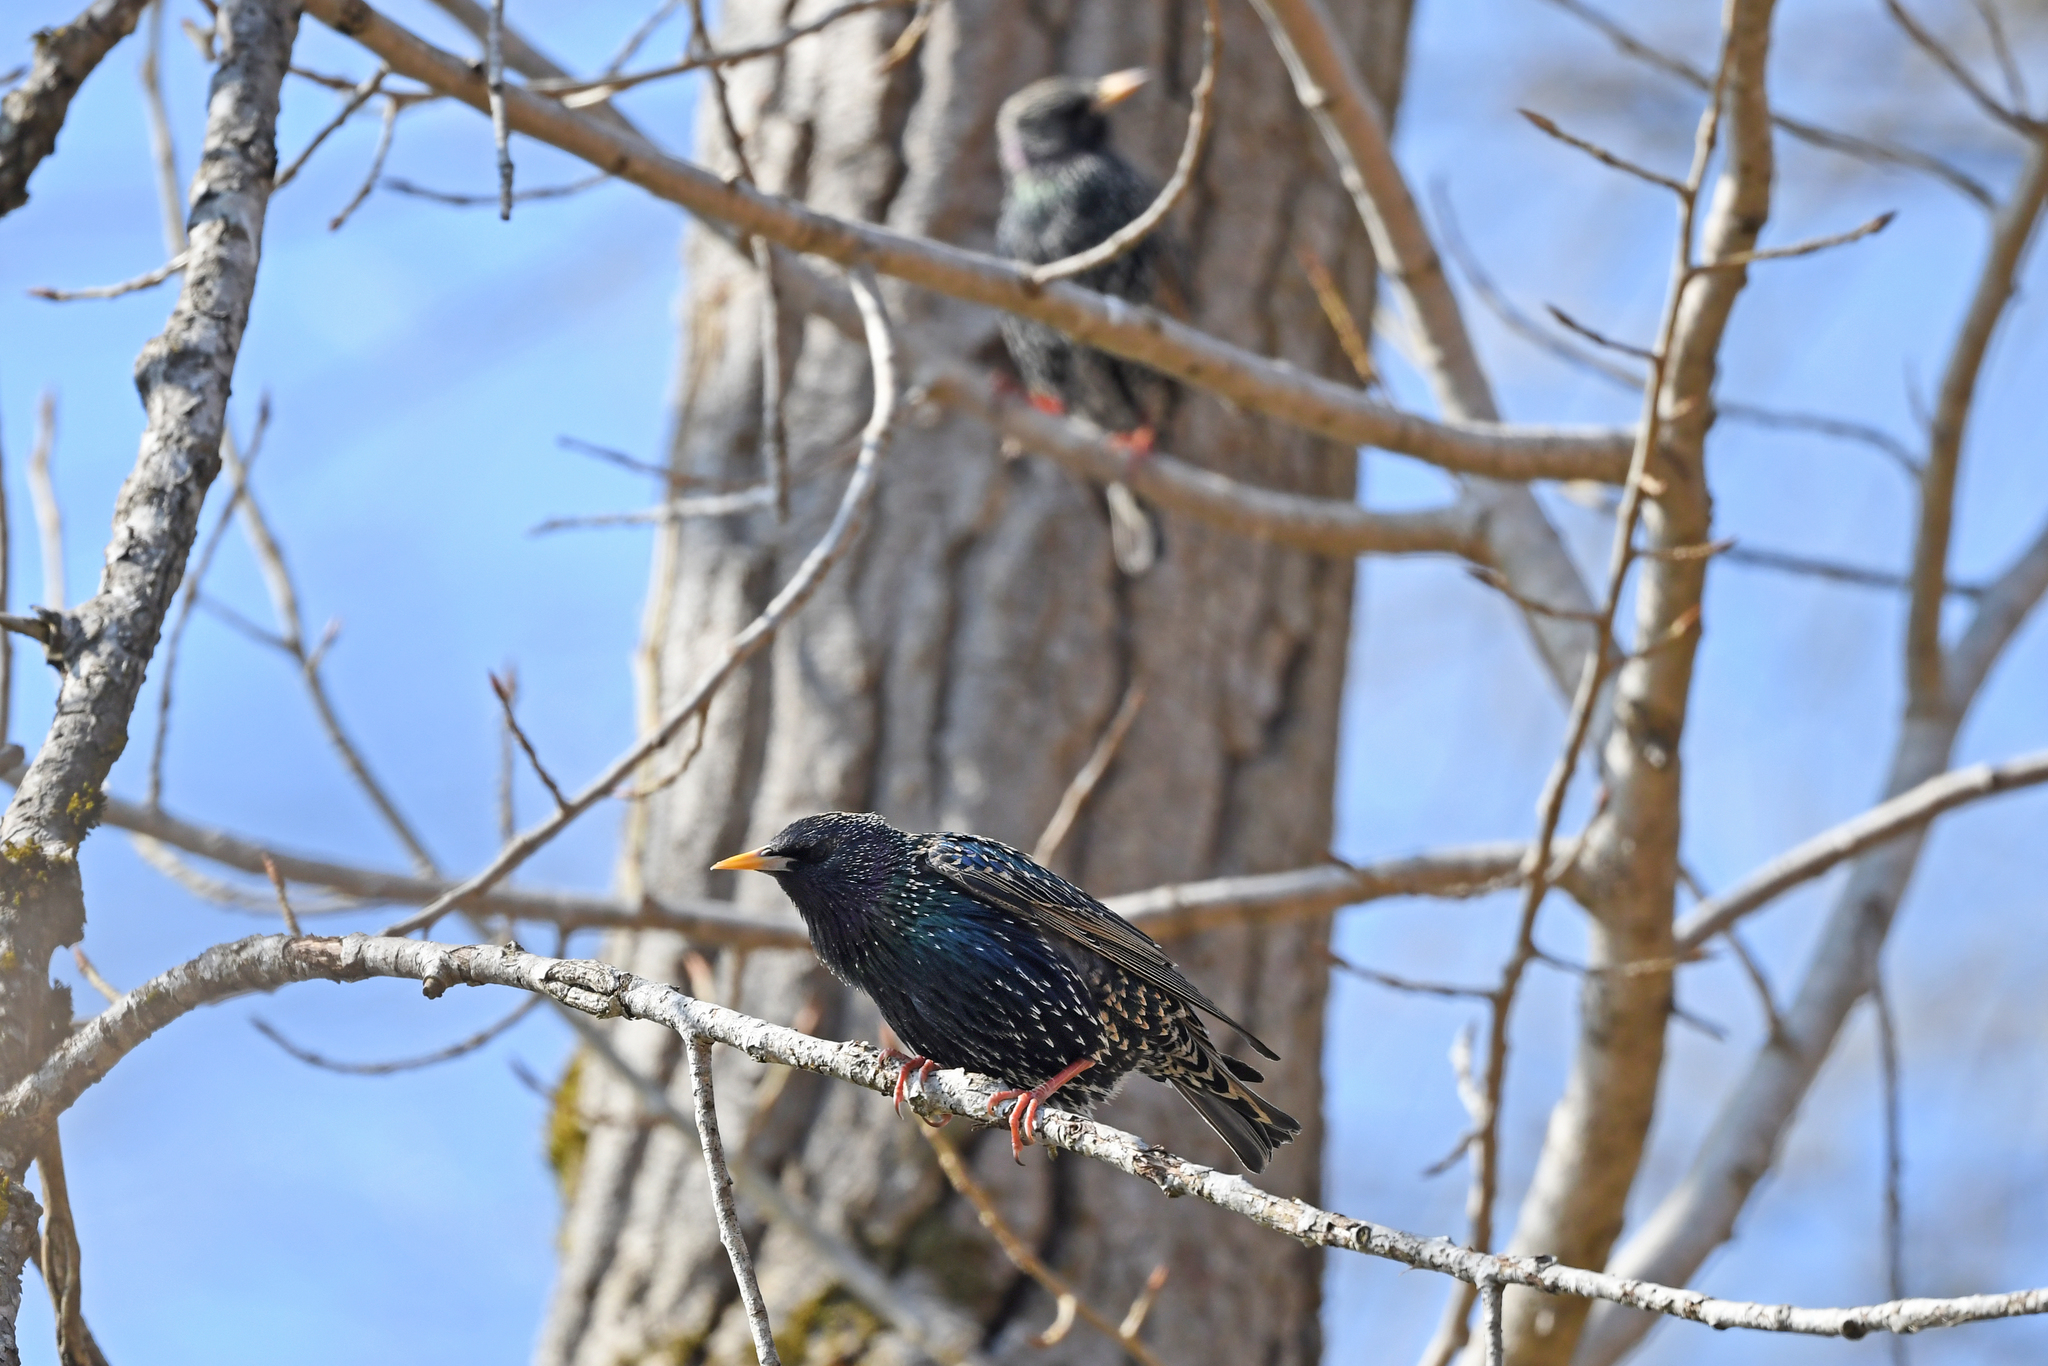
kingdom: Animalia
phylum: Chordata
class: Aves
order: Passeriformes
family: Sturnidae
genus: Sturnus
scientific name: Sturnus vulgaris
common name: Common starling
